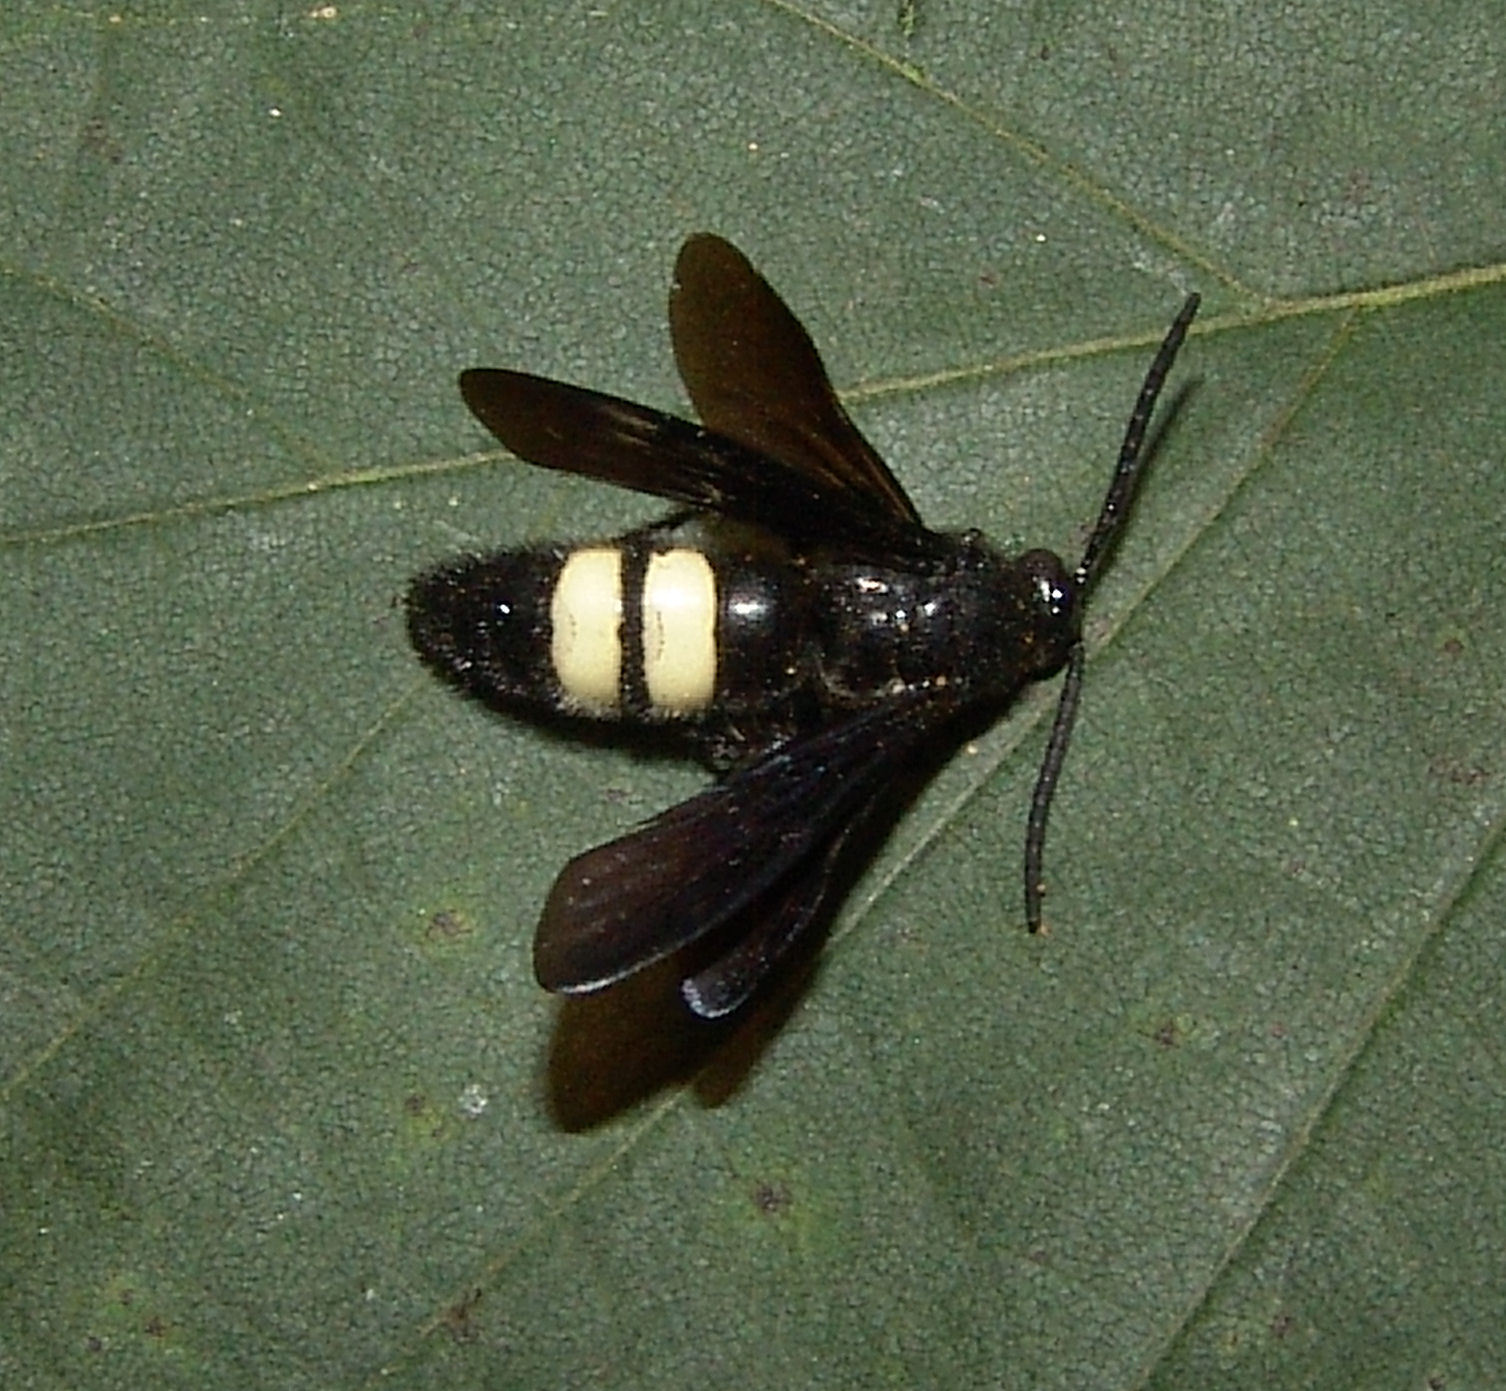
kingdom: Animalia
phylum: Arthropoda
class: Insecta
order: Hymenoptera
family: Scoliidae
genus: Scolia
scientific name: Scolia bicincta
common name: Double-banded scoliid wasp
